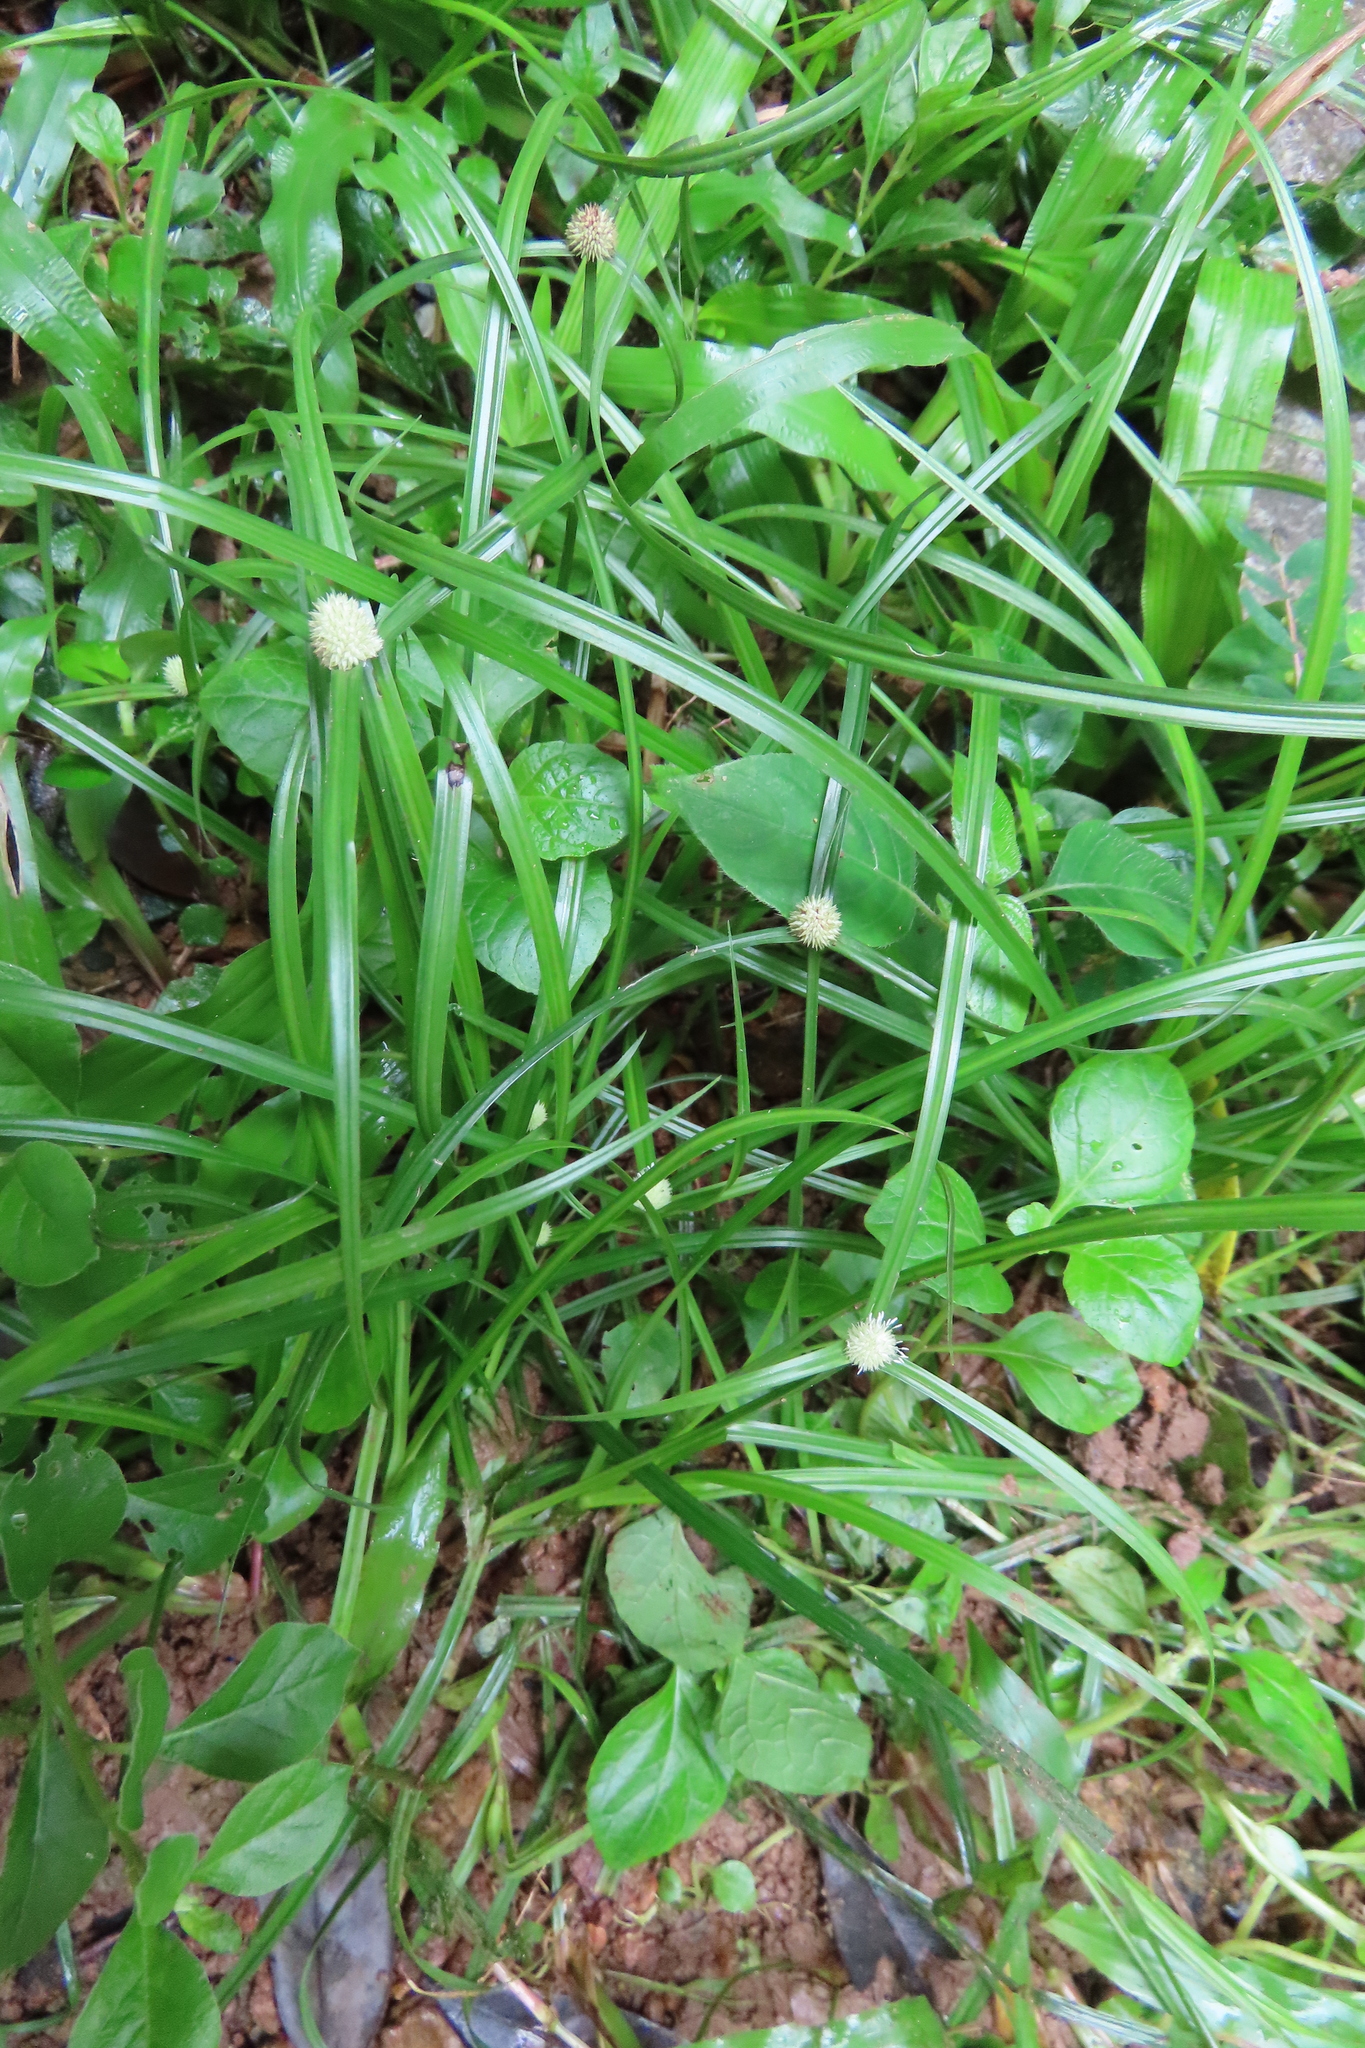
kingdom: Plantae
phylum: Tracheophyta
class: Liliopsida
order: Poales
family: Cyperaceae
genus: Cyperus
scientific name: Cyperus mindorensis
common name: Flatsedge
